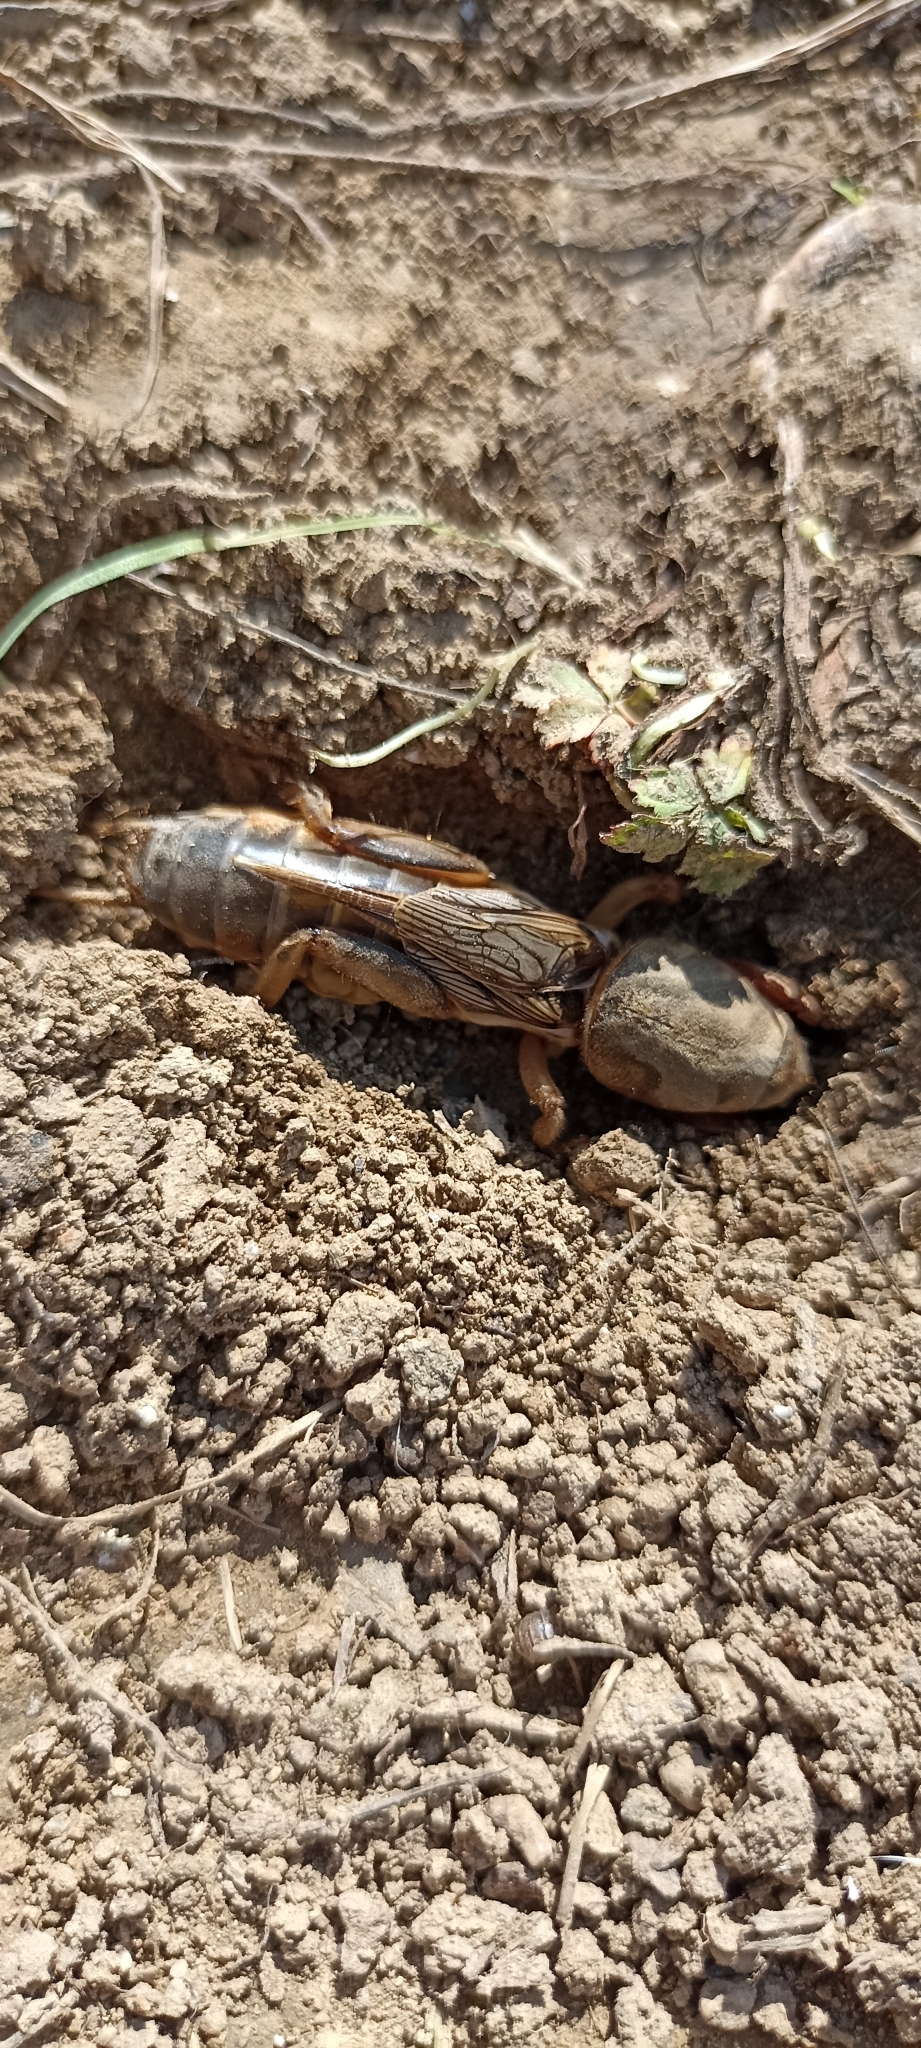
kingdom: Animalia
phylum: Arthropoda
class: Insecta
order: Orthoptera
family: Gryllotalpidae
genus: Gryllotalpa
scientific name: Gryllotalpa septemdecimchromosomica
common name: Seventeen-chromosome mole-cricket
